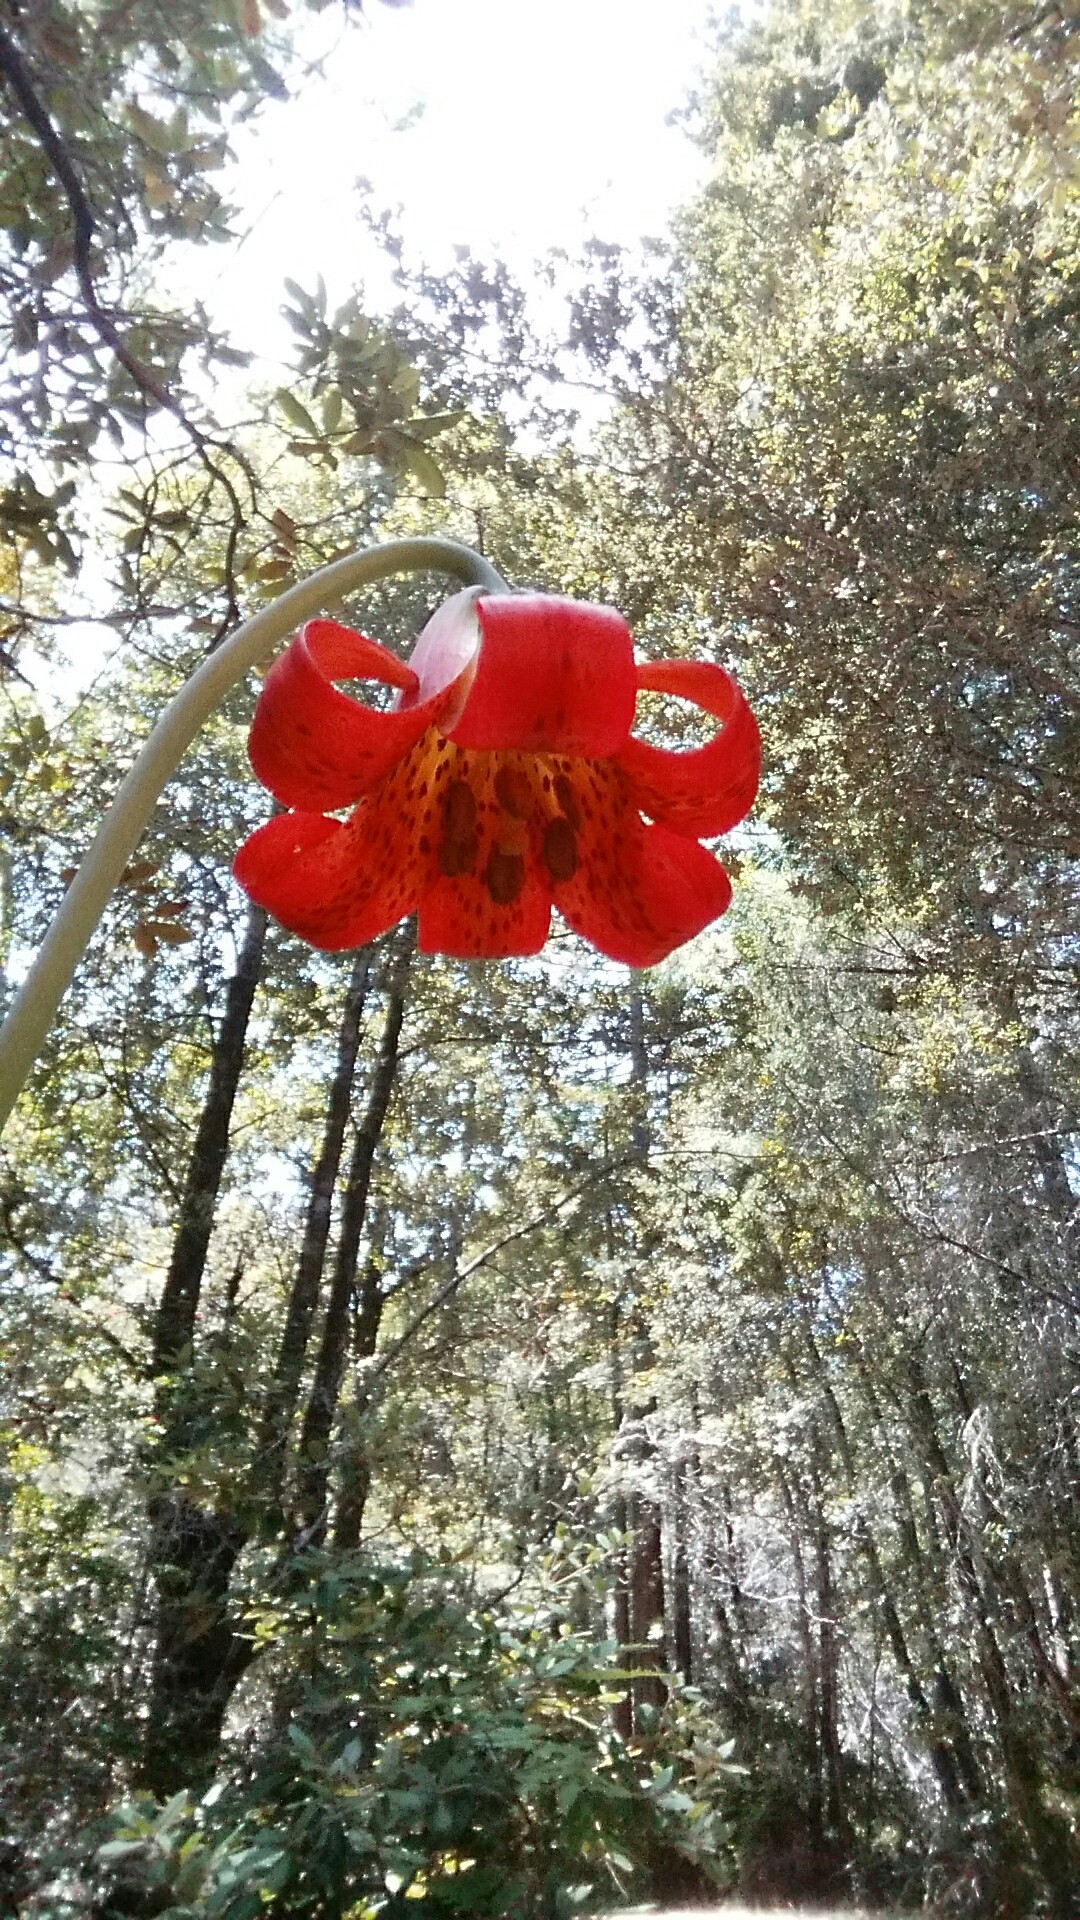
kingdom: Plantae
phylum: Tracheophyta
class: Liliopsida
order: Liliales
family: Liliaceae
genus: Lilium
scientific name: Lilium maritimum
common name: Coastal lily
